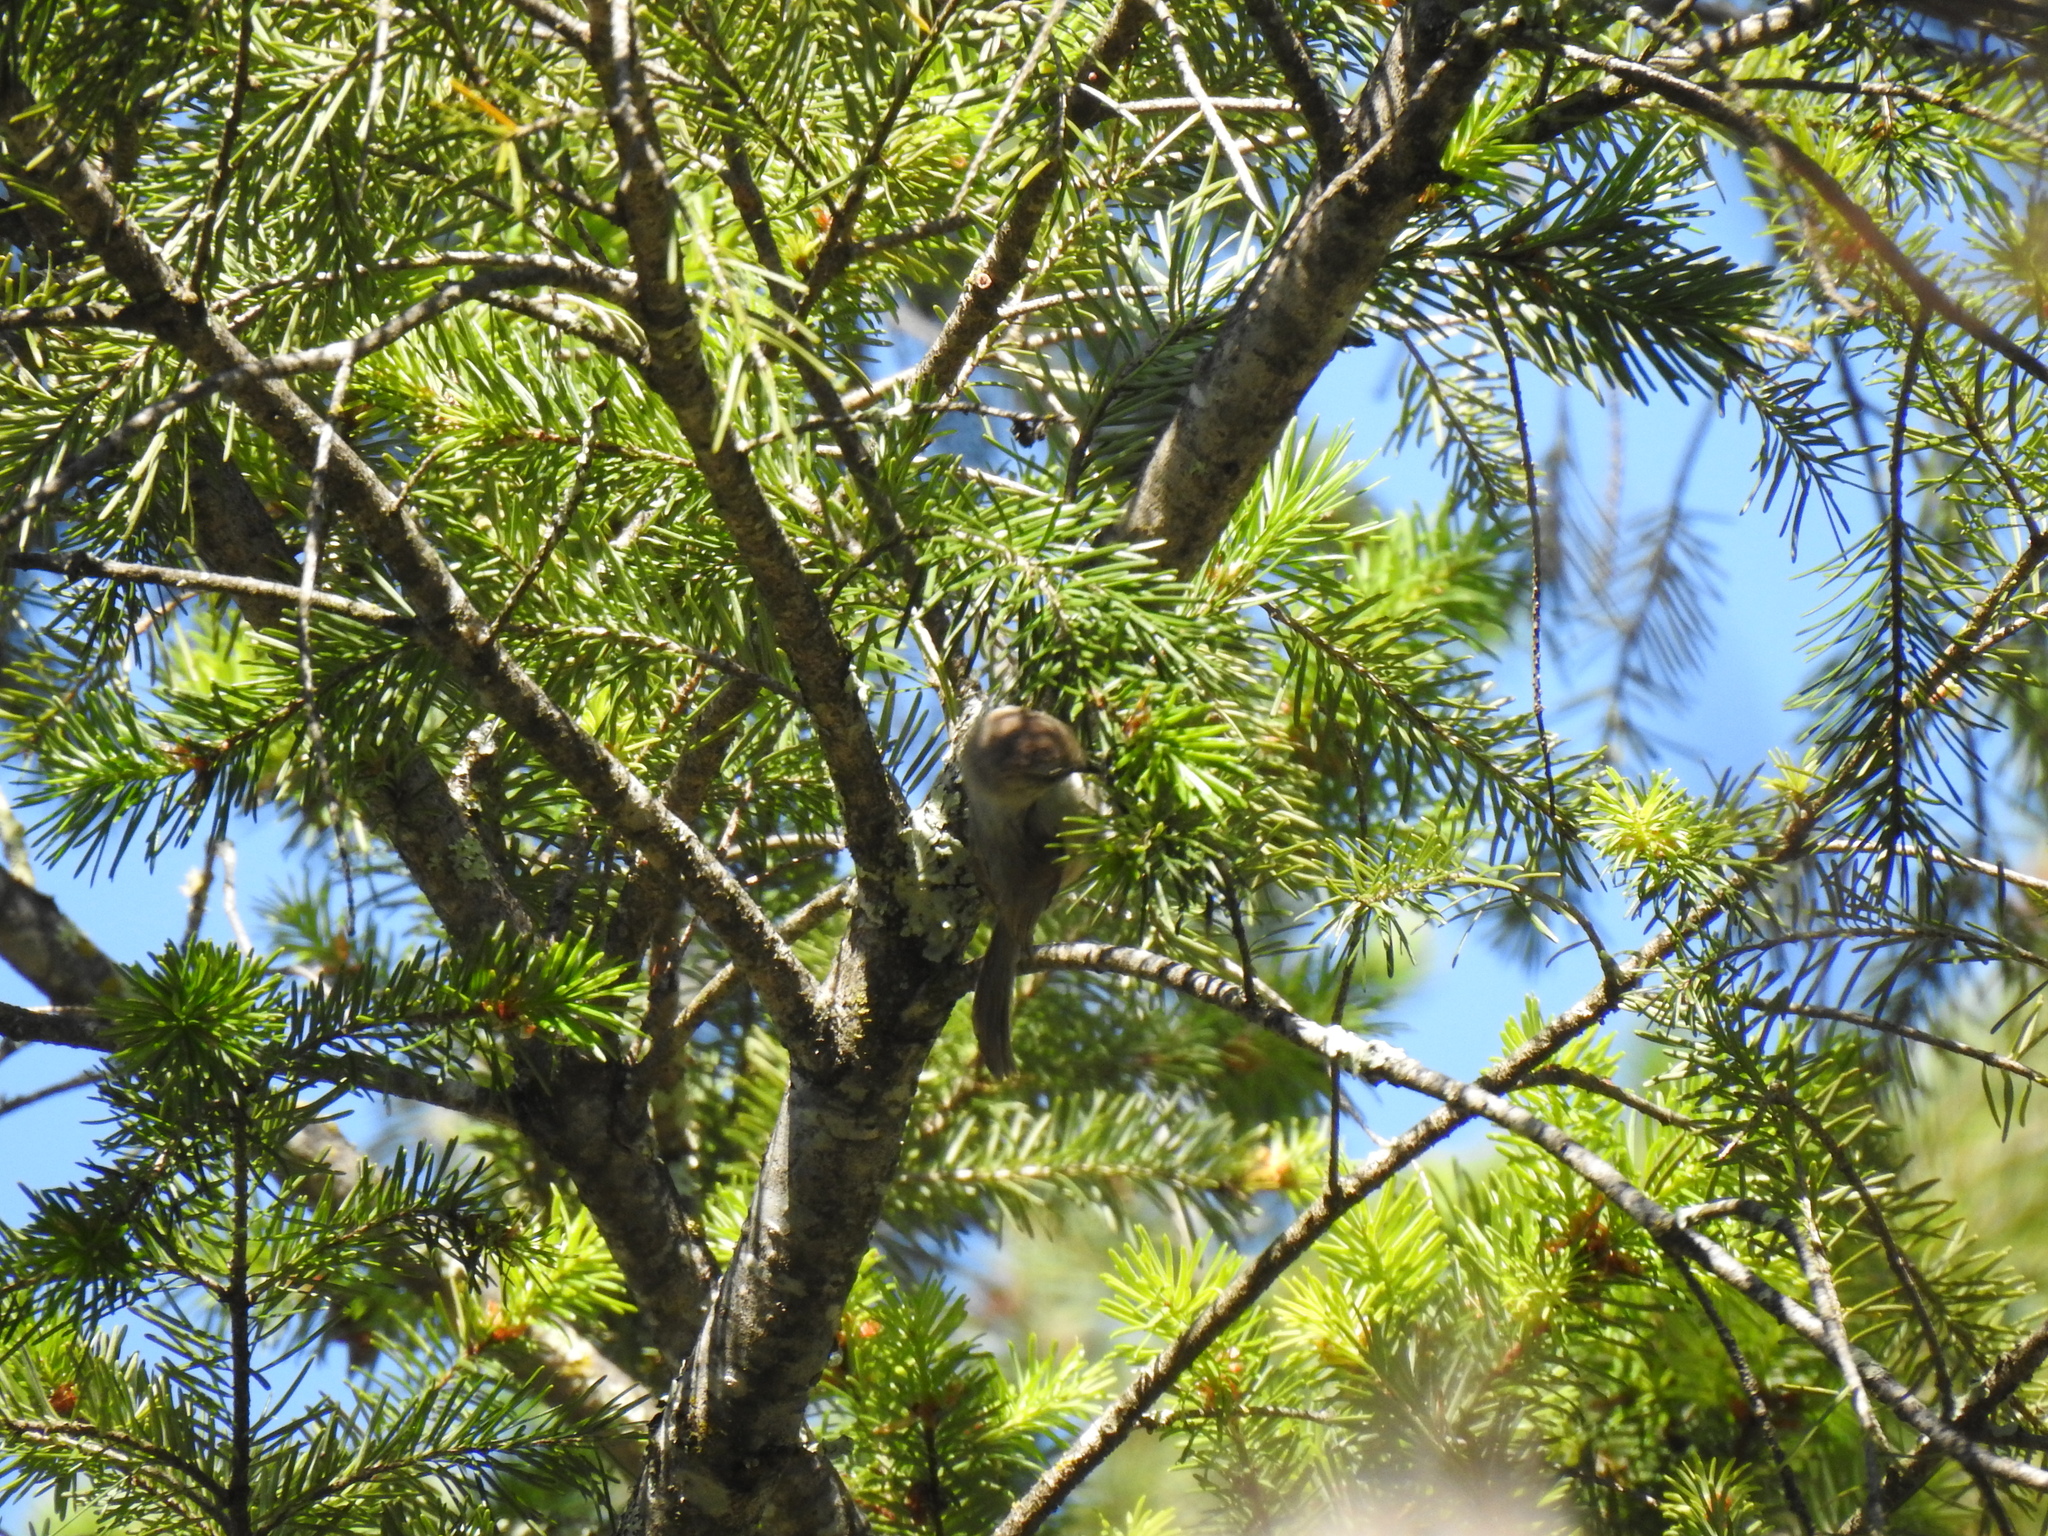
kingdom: Animalia
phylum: Chordata
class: Aves
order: Passeriformes
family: Aegithalidae
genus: Psaltriparus
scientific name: Psaltriparus minimus
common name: American bushtit
